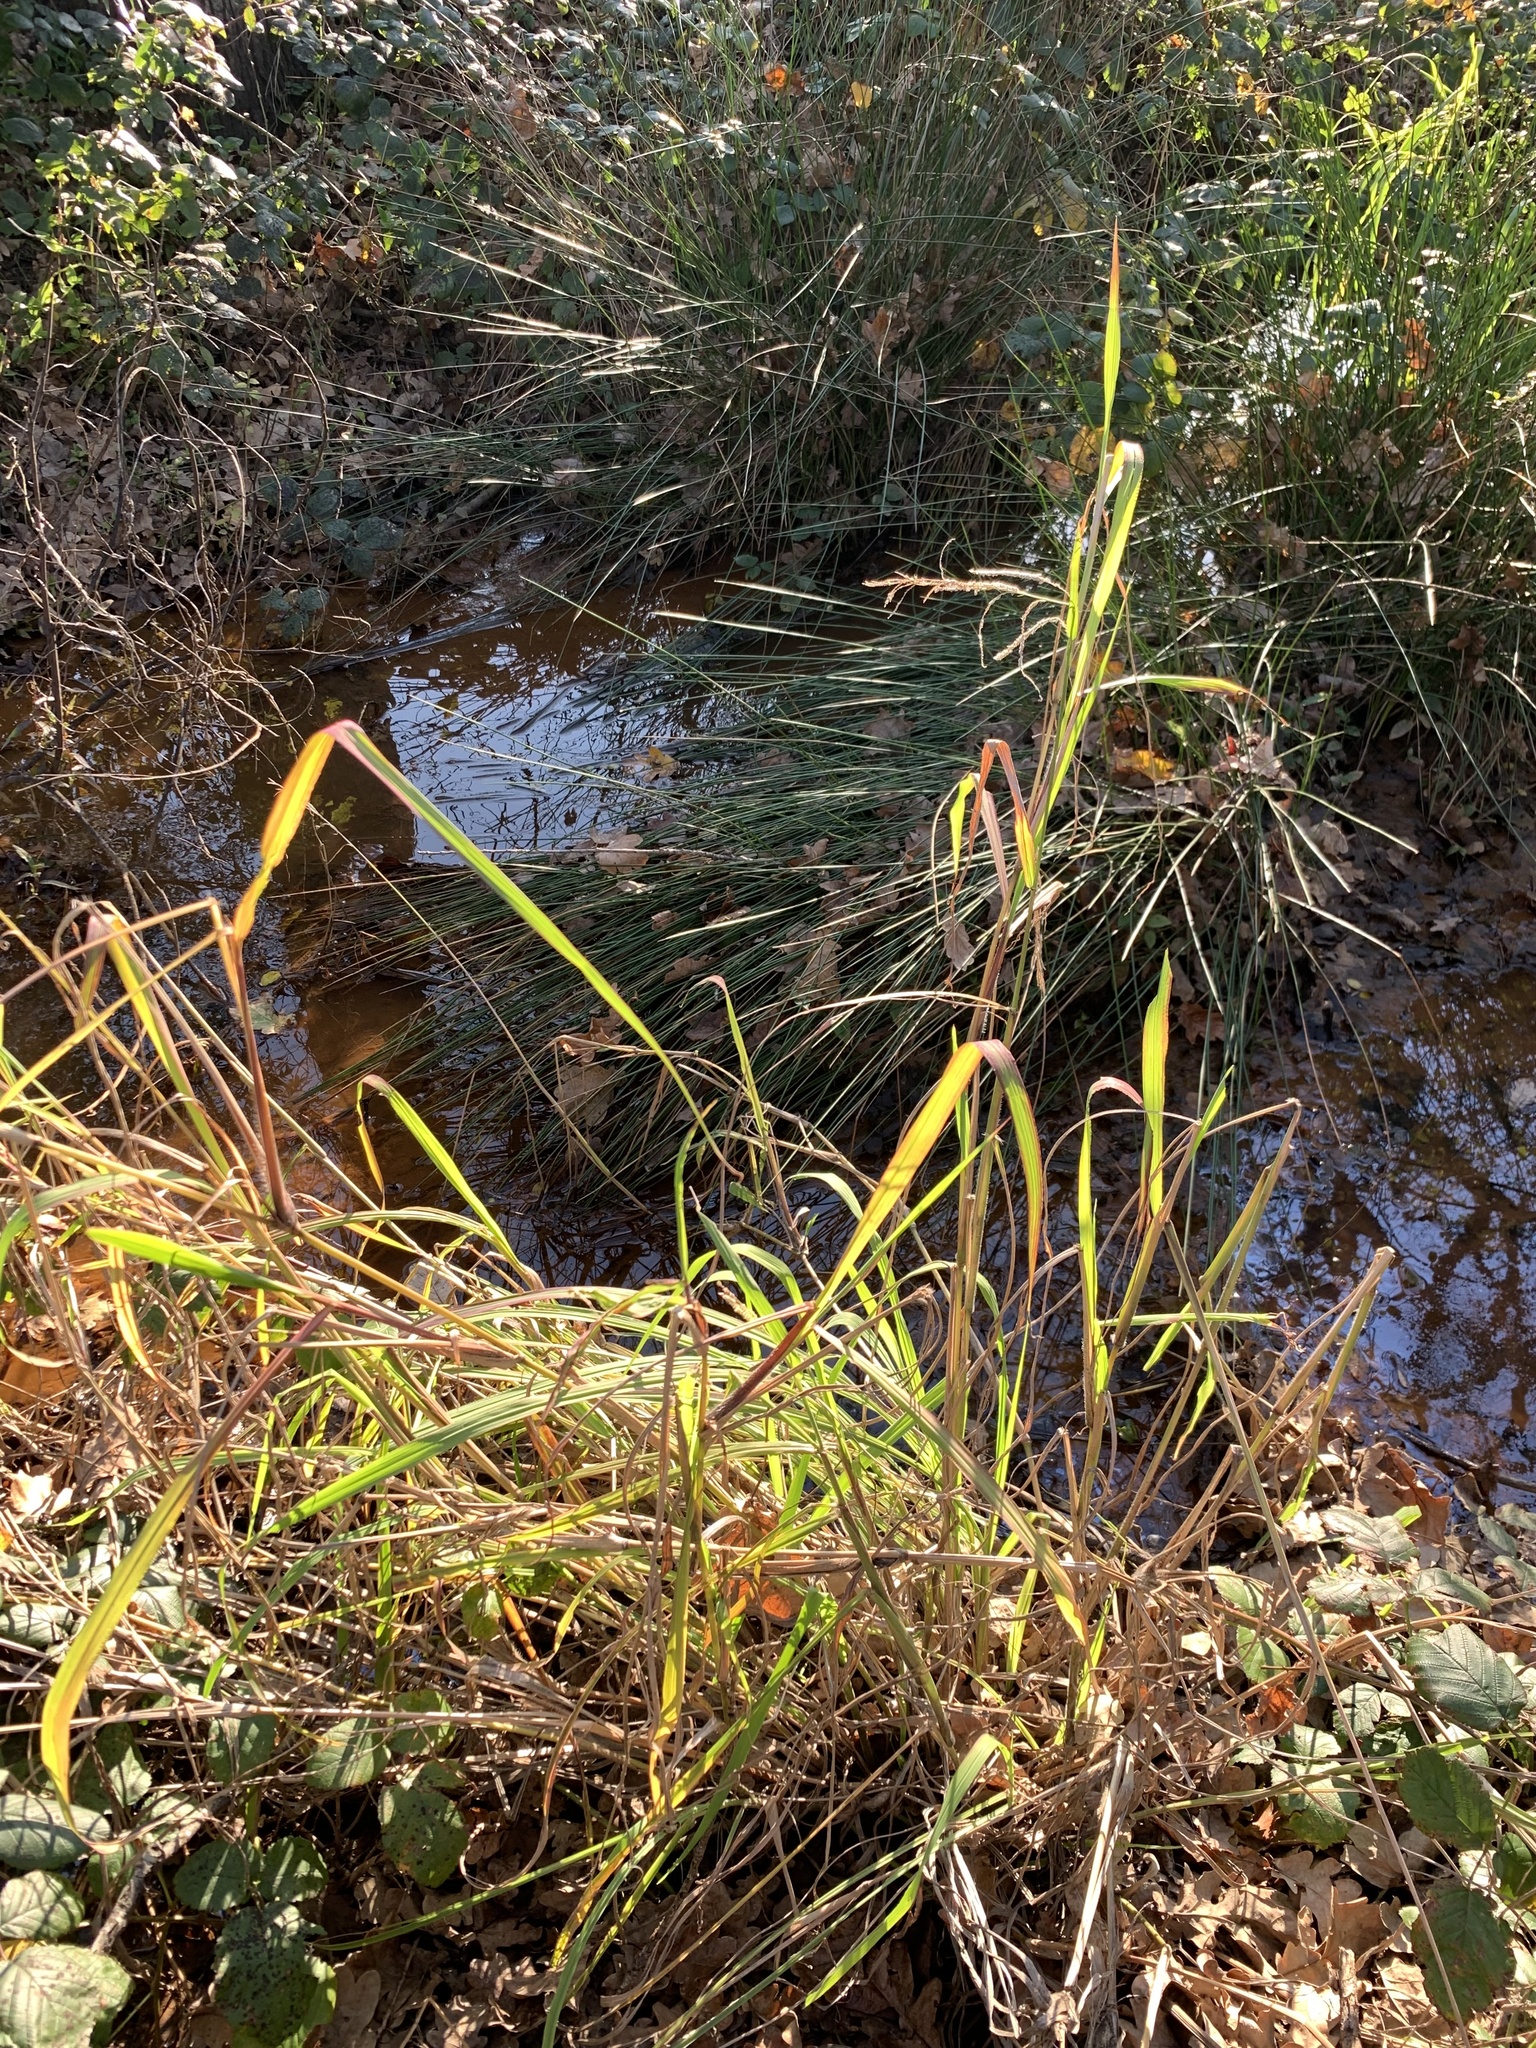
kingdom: Plantae
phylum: Tracheophyta
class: Liliopsida
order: Poales
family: Poaceae
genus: Paspalum
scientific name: Paspalum urvillei
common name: Vasey's grass
